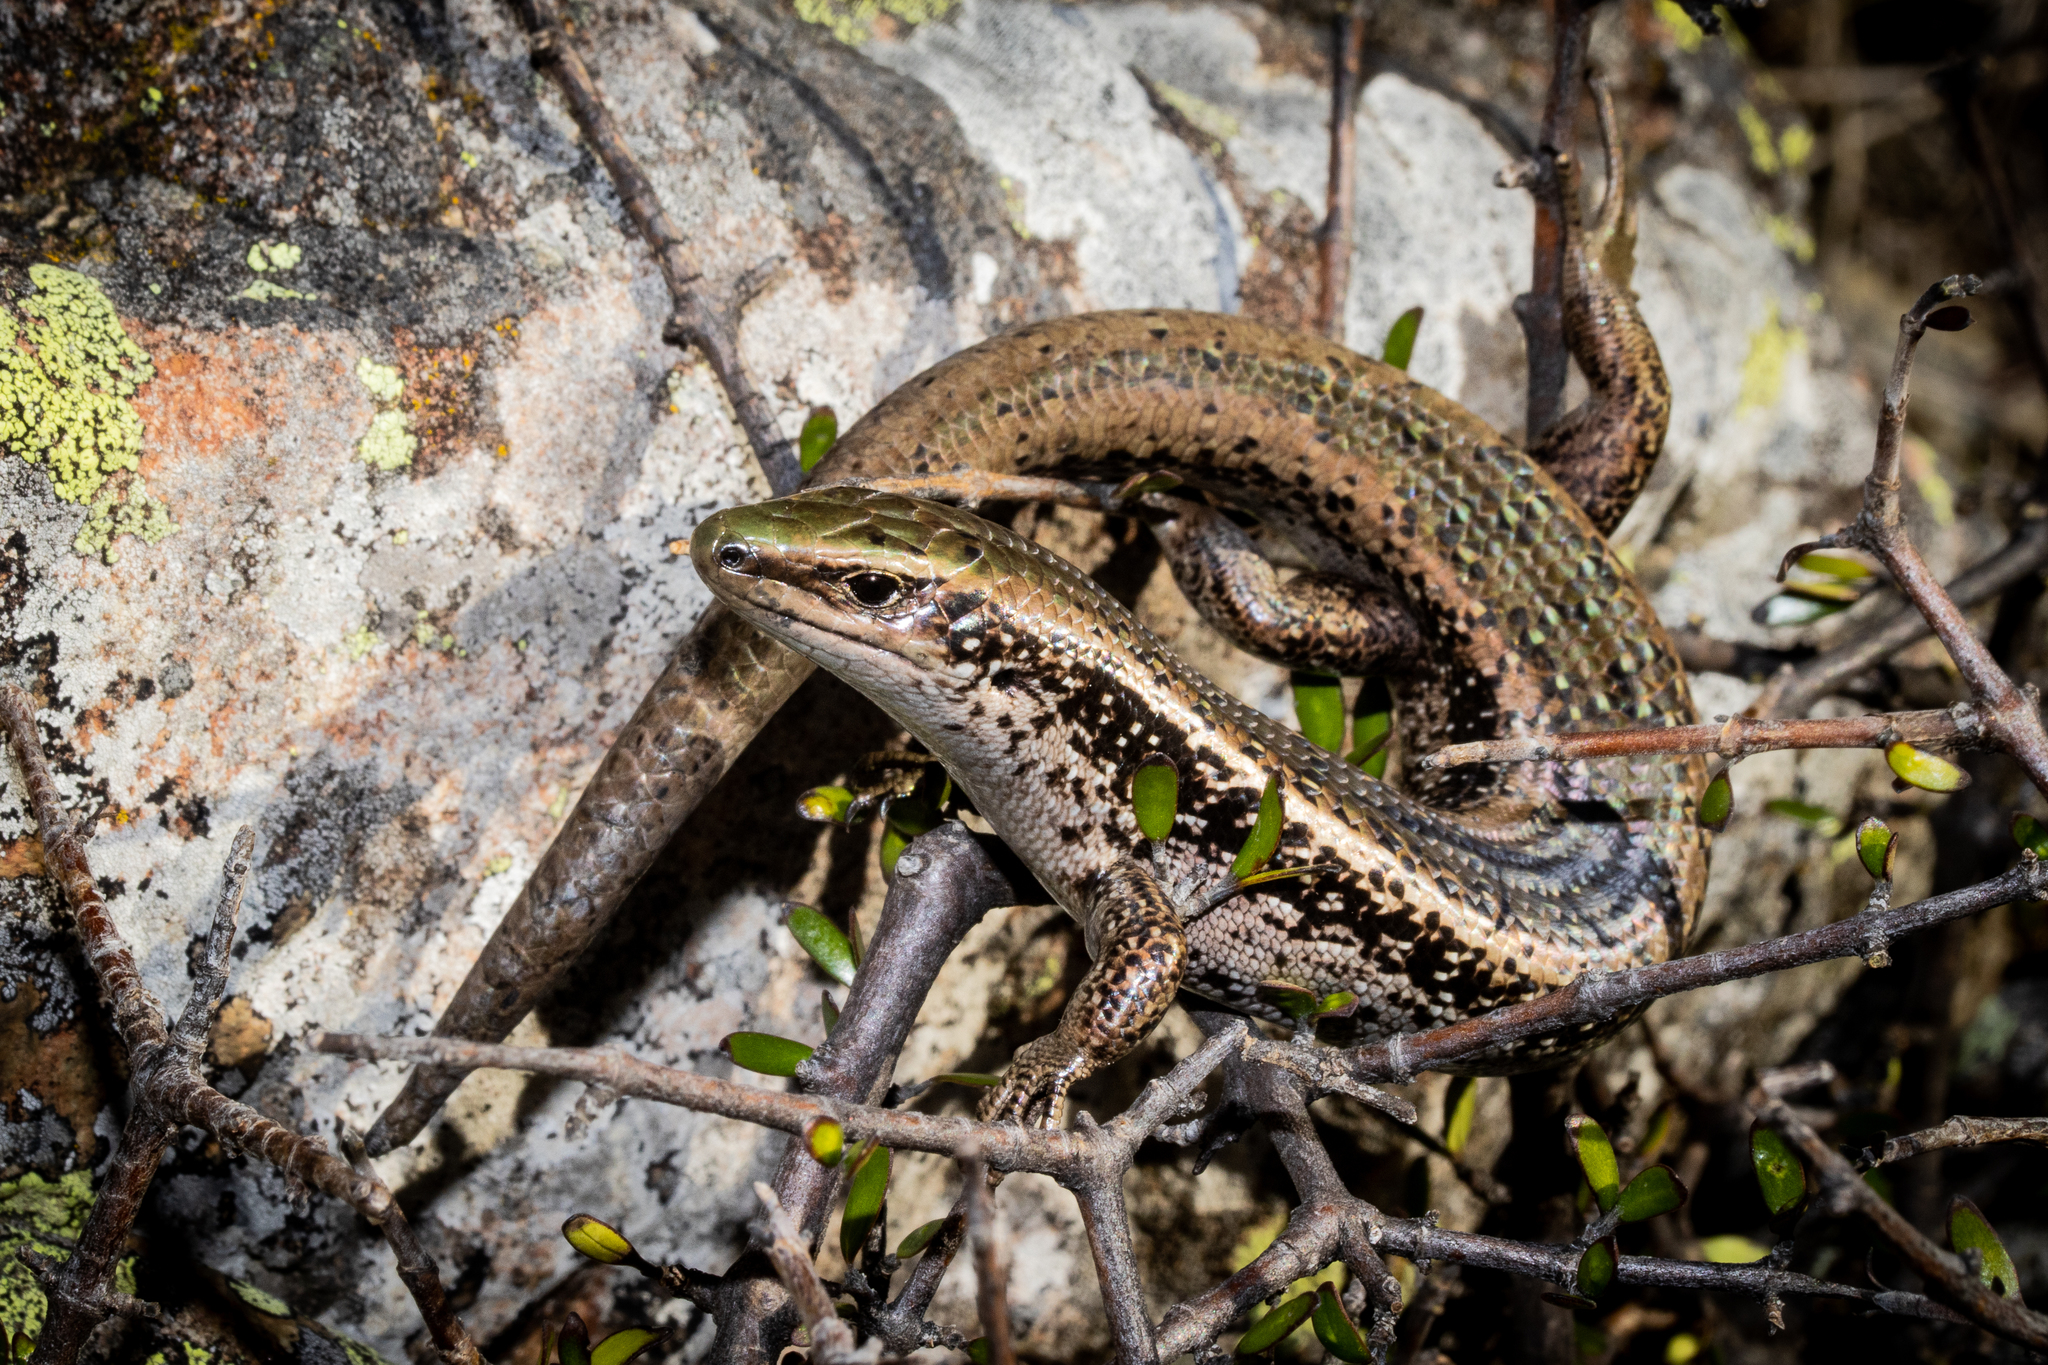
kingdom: Animalia
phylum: Chordata
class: Squamata
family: Scincidae
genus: Oligosoma
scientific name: Oligosoma chloronoton
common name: Green skink
